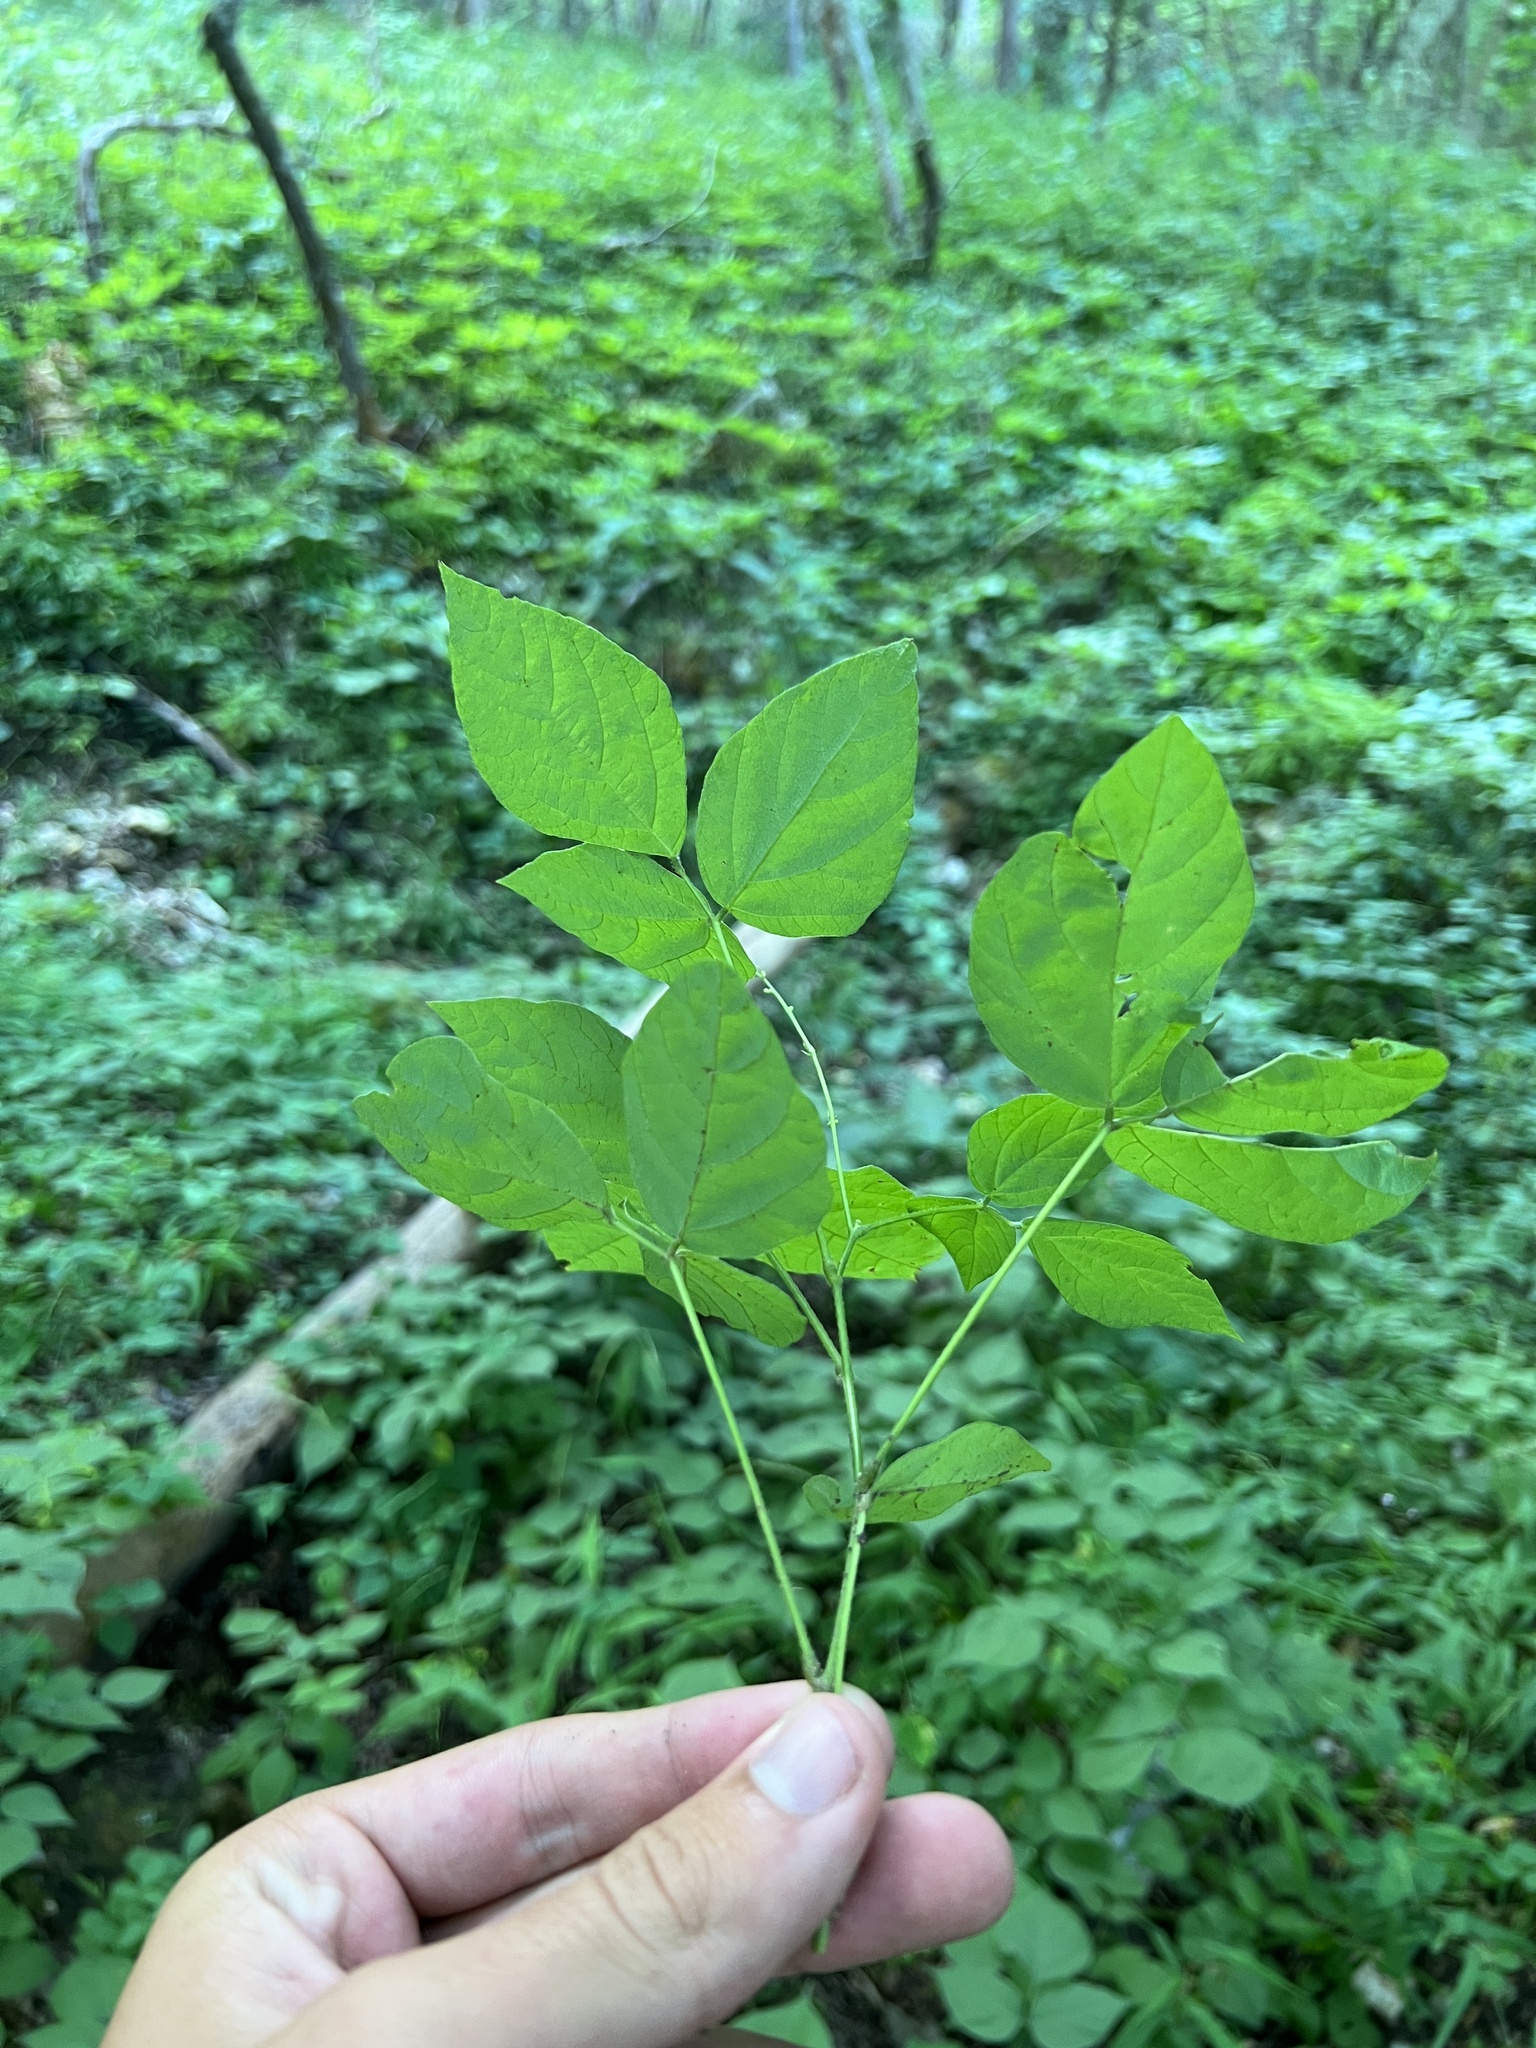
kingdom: Plantae
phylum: Tracheophyta
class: Magnoliopsida
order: Fabales
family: Fabaceae
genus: Hylodesmum
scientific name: Hylodesmum pauciflorum
